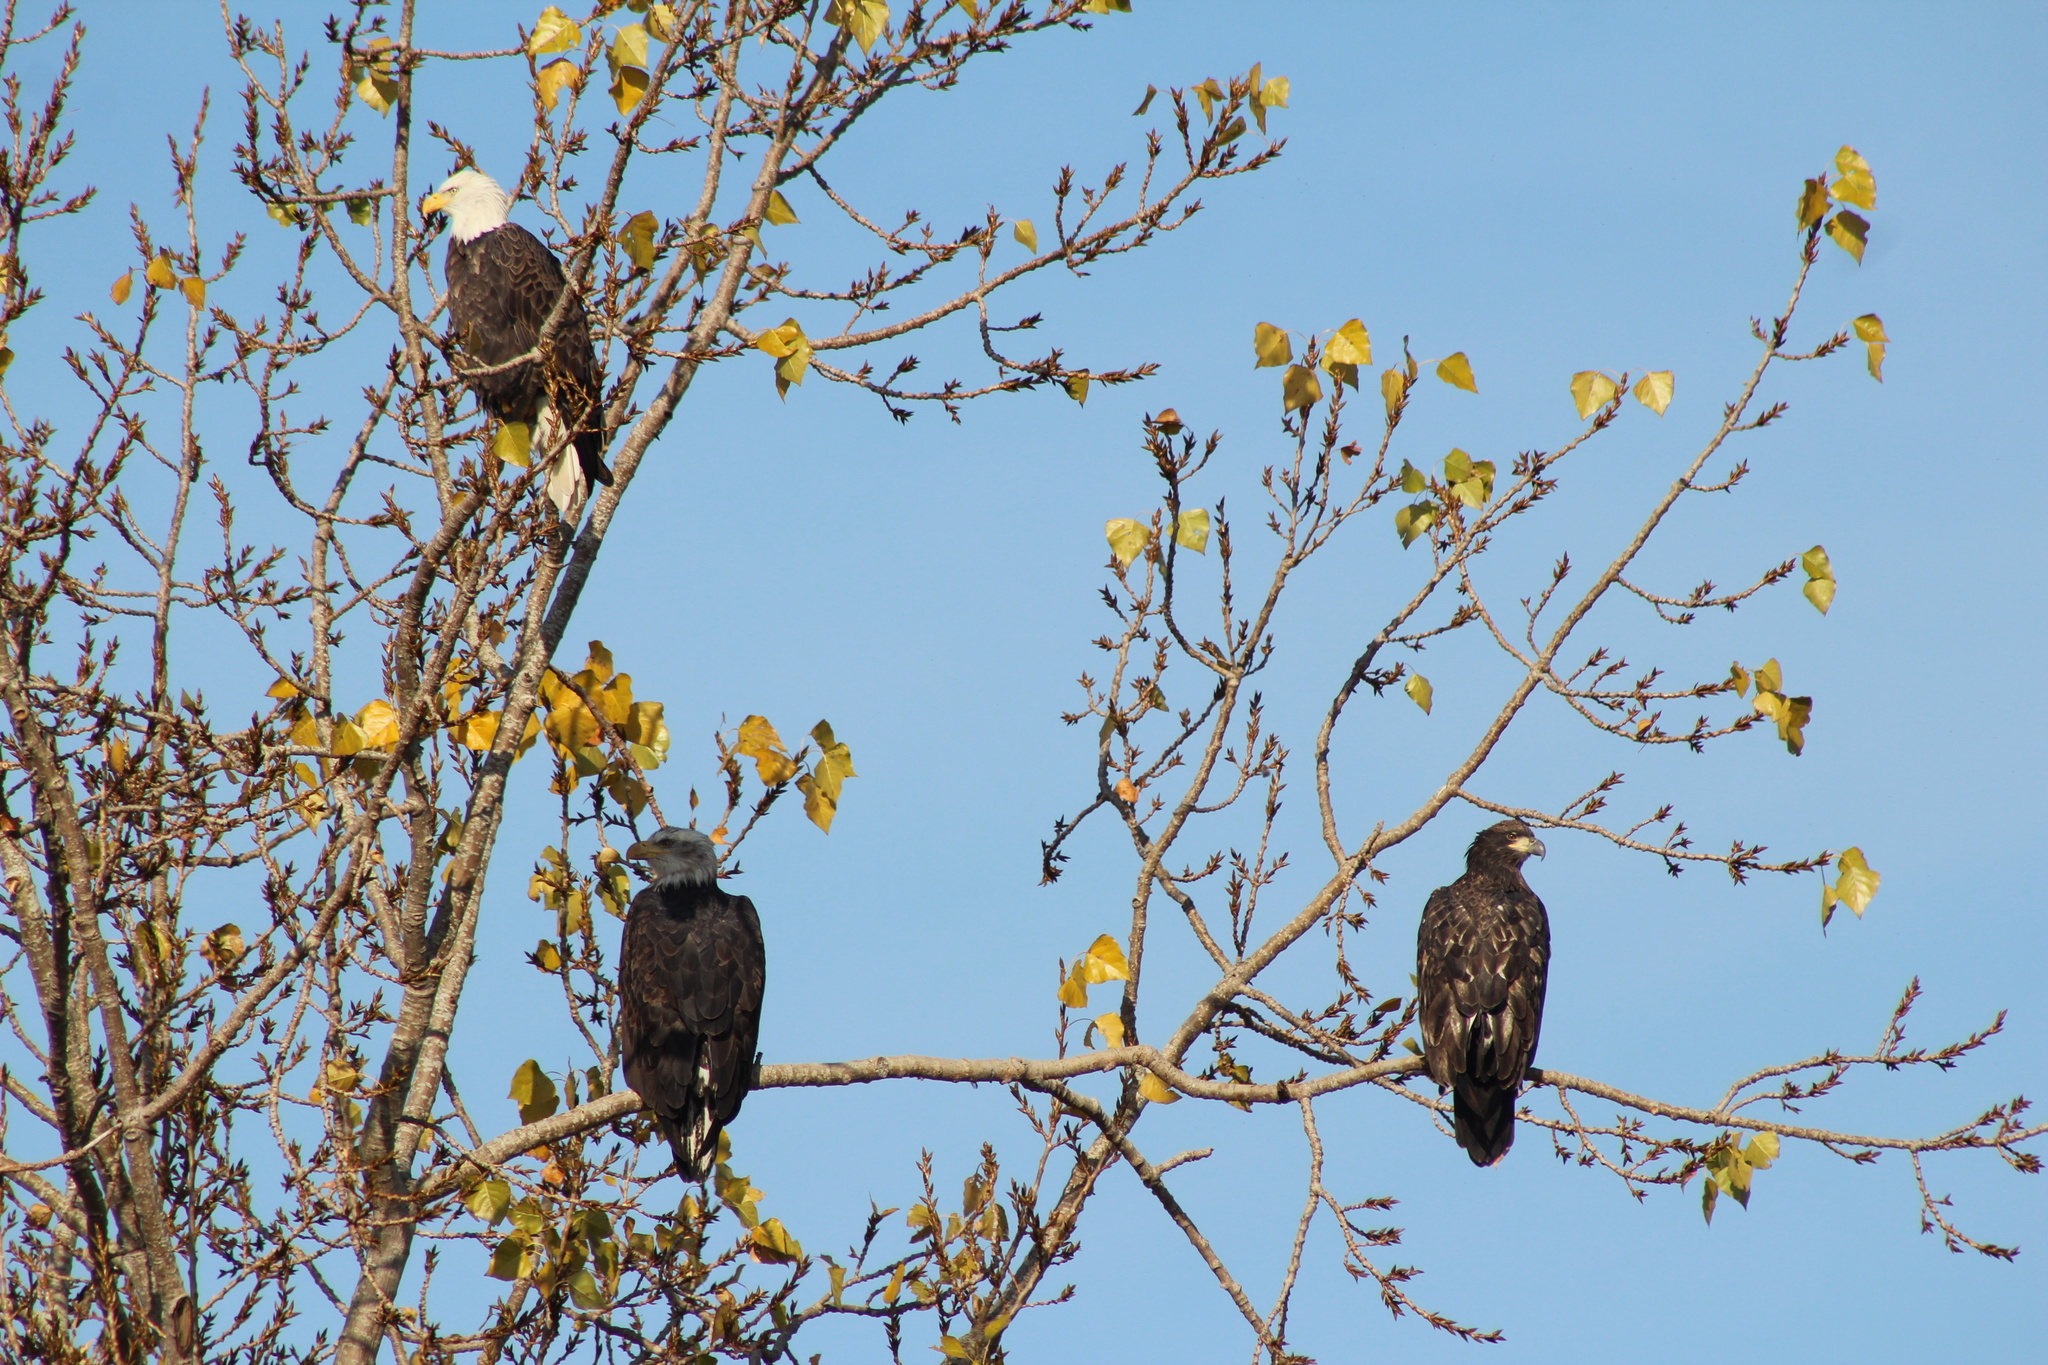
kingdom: Animalia
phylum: Chordata
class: Aves
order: Accipitriformes
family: Accipitridae
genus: Haliaeetus
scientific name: Haliaeetus leucocephalus
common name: Bald eagle
